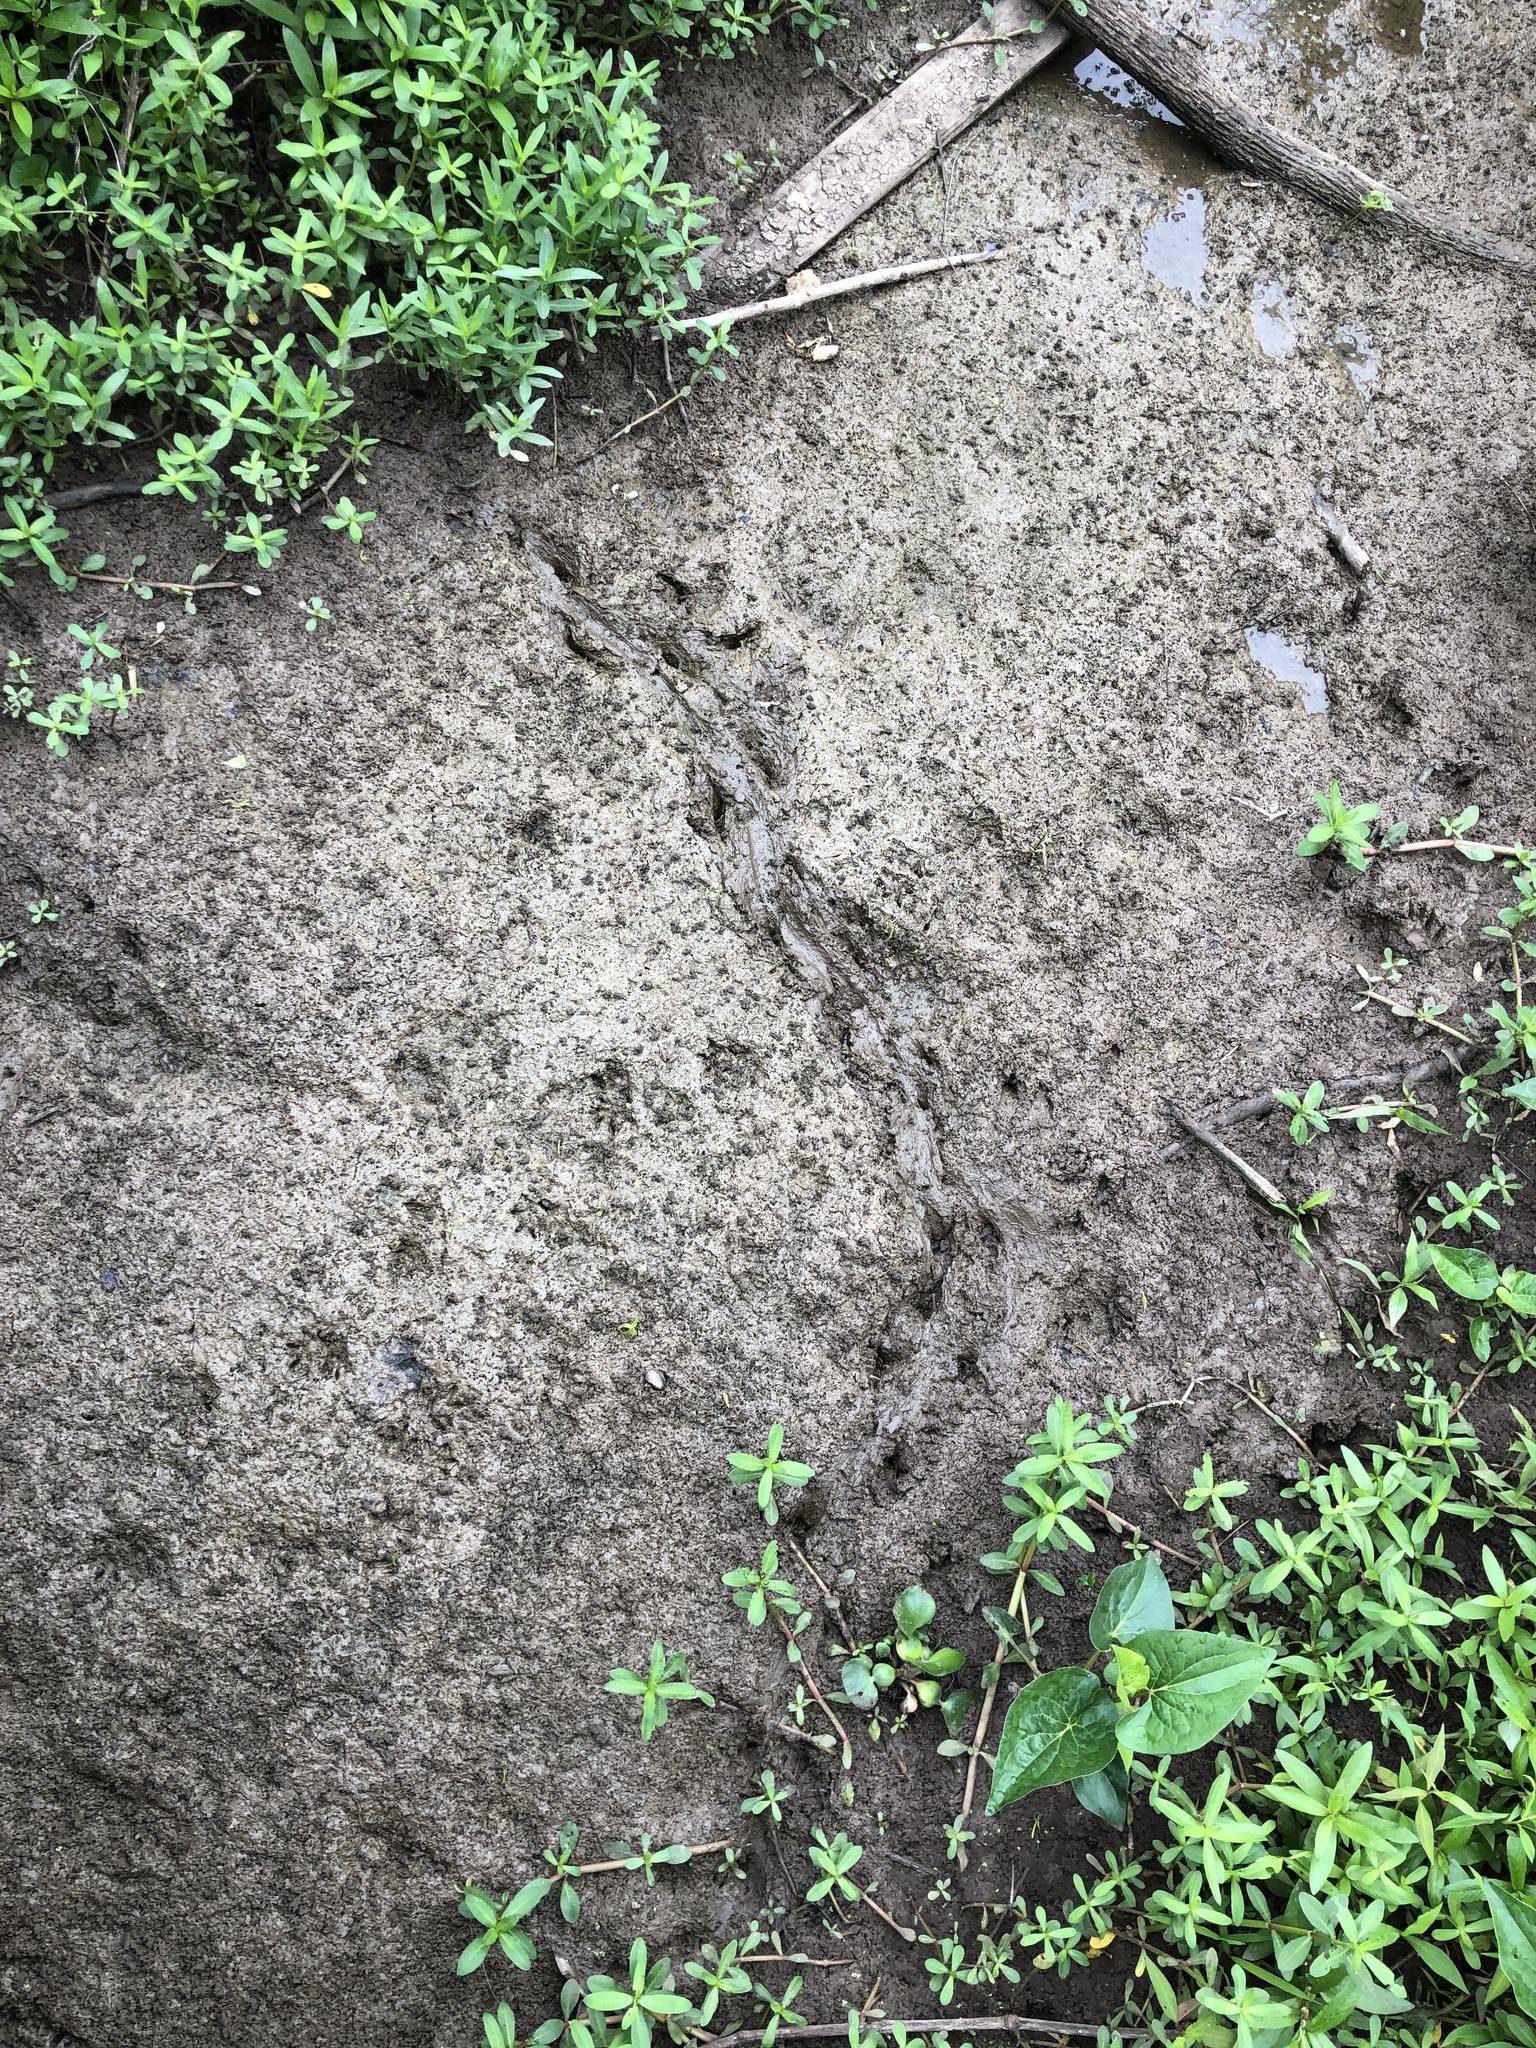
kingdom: Animalia
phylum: Chordata
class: Crocodylia
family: Alligatoridae
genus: Alligator
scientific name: Alligator mississippiensis
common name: American alligator
